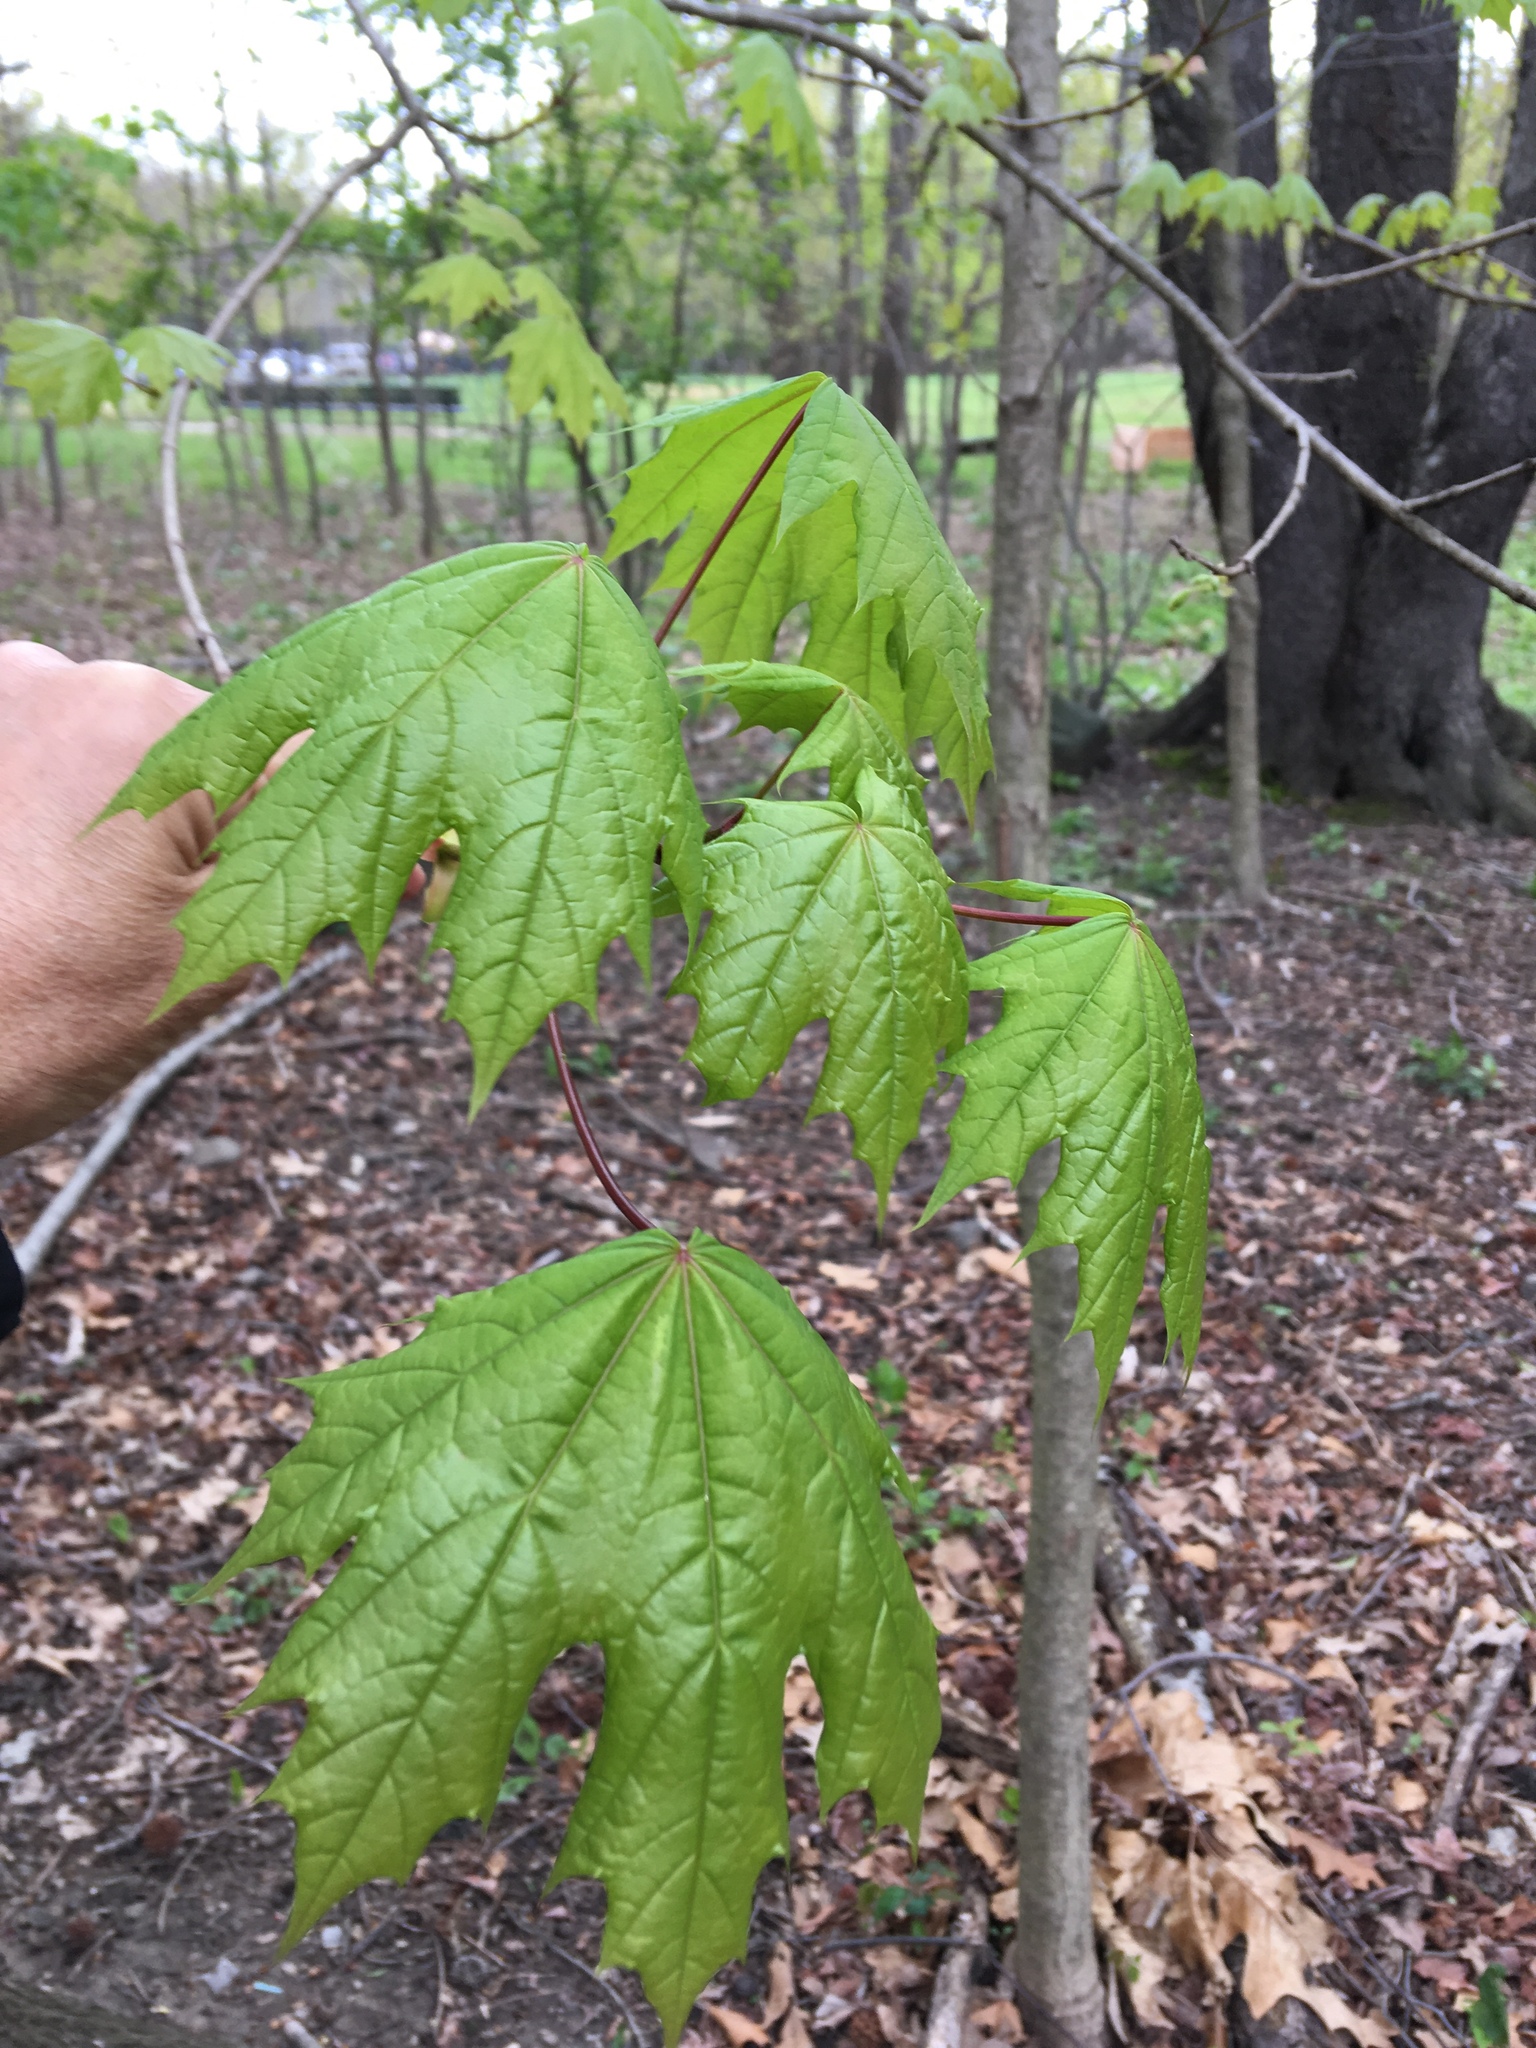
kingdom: Plantae
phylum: Tracheophyta
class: Magnoliopsida
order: Sapindales
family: Sapindaceae
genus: Acer
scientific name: Acer platanoides
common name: Norway maple
